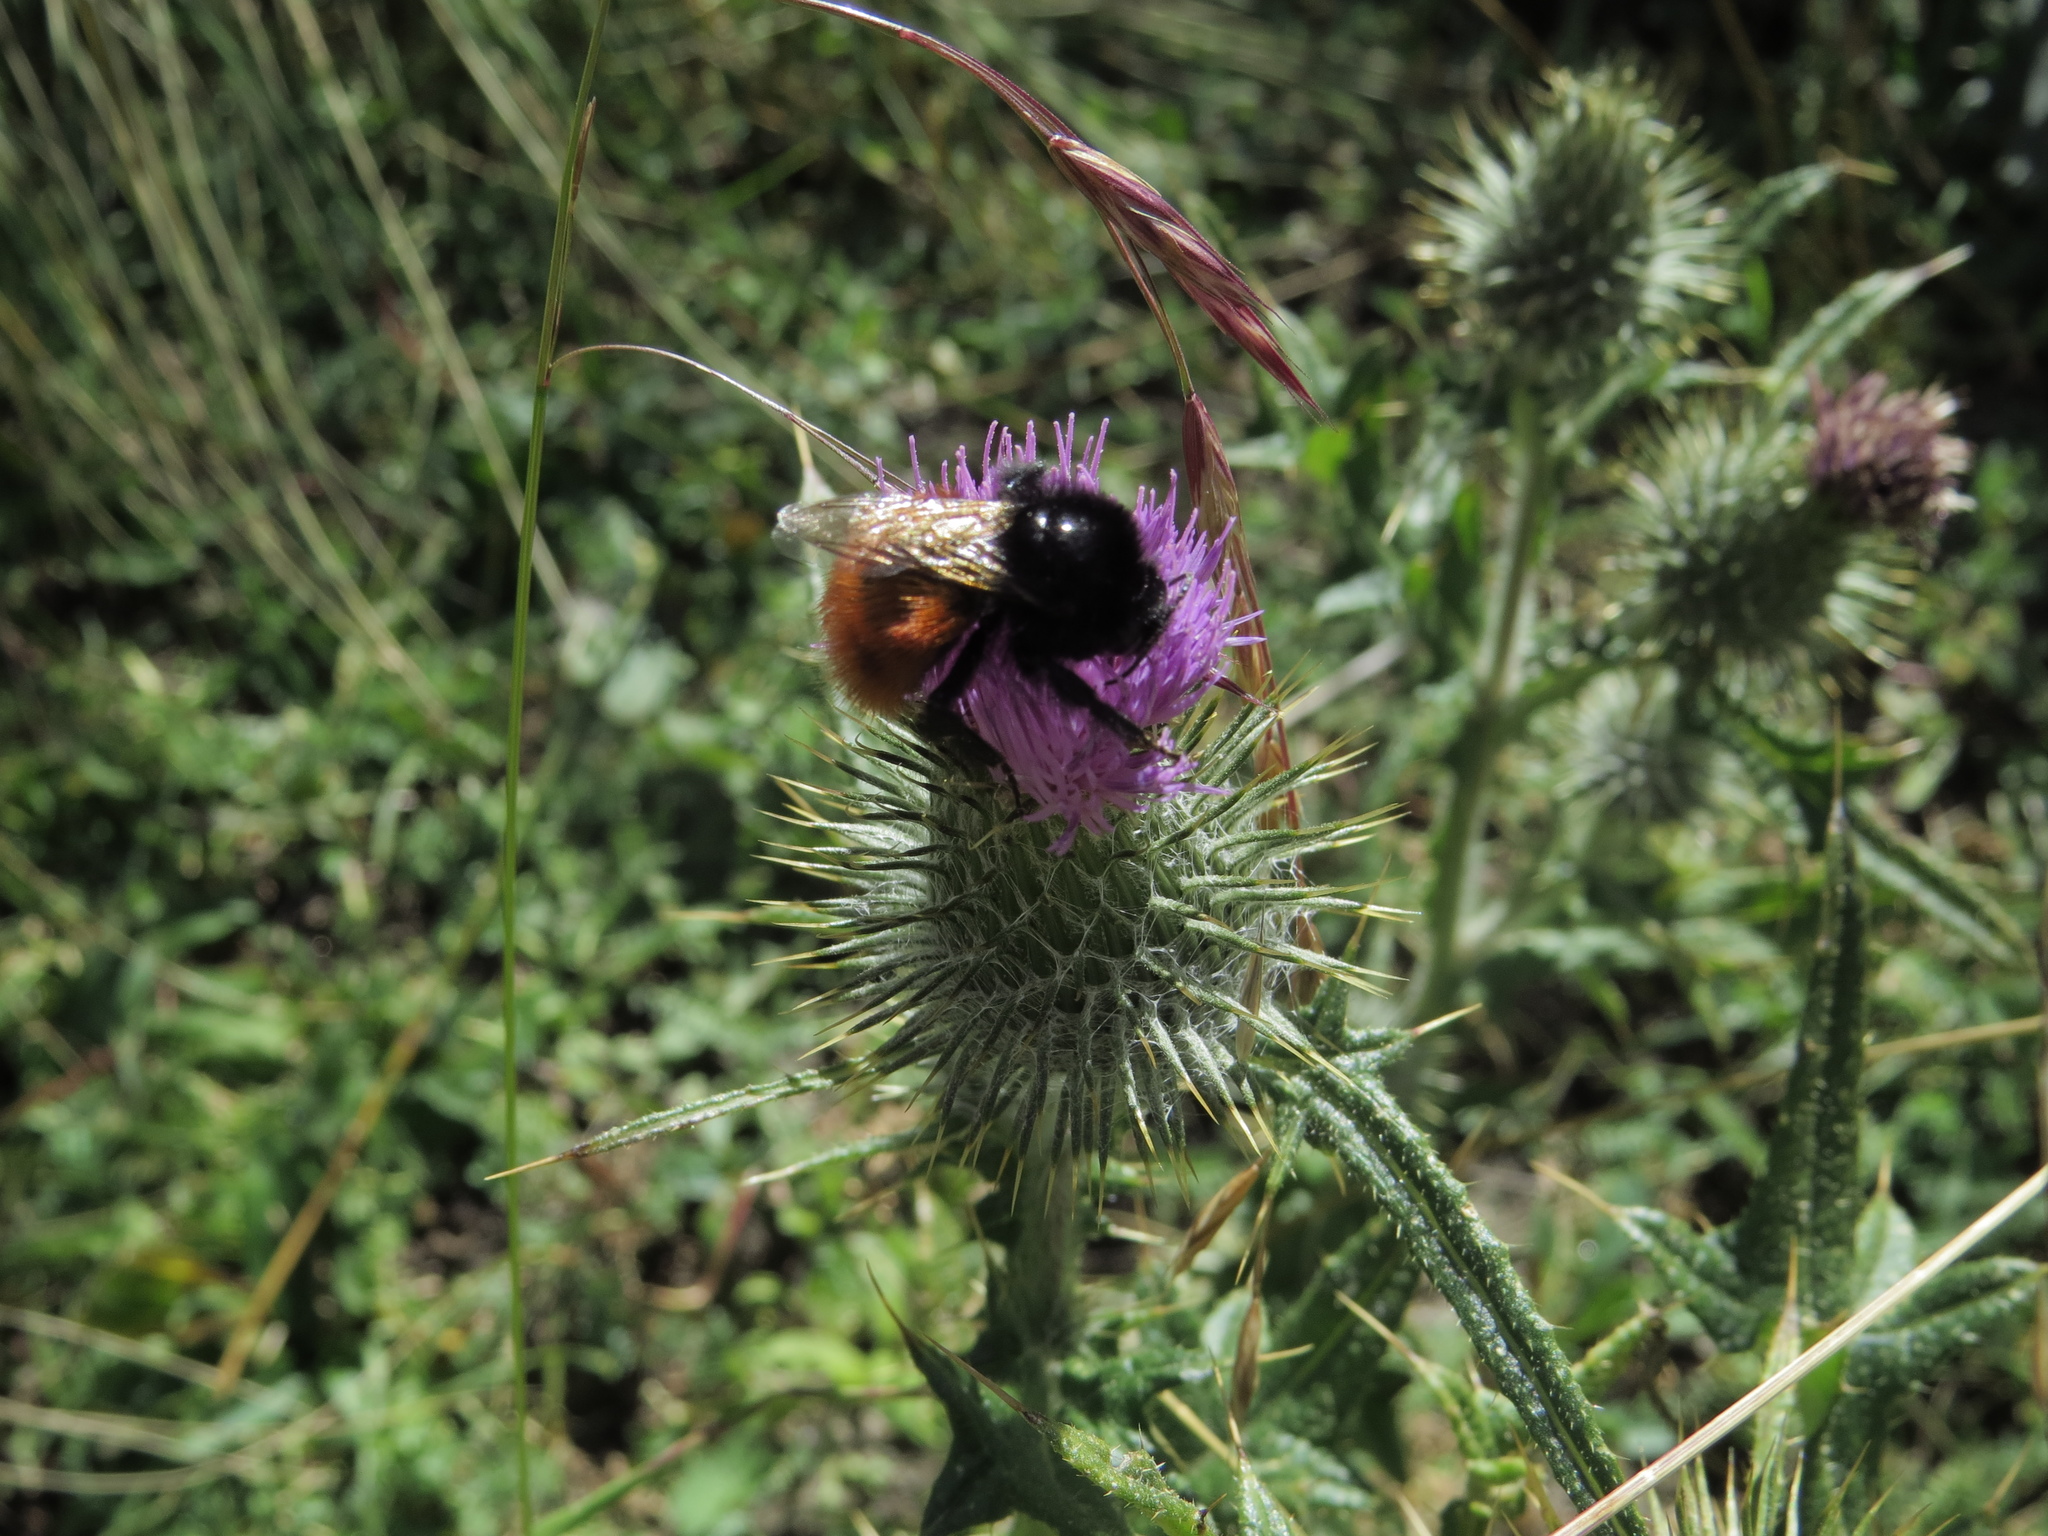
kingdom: Animalia
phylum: Arthropoda
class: Insecta
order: Hymenoptera
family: Apidae
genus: Bombus
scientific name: Bombus baeri
